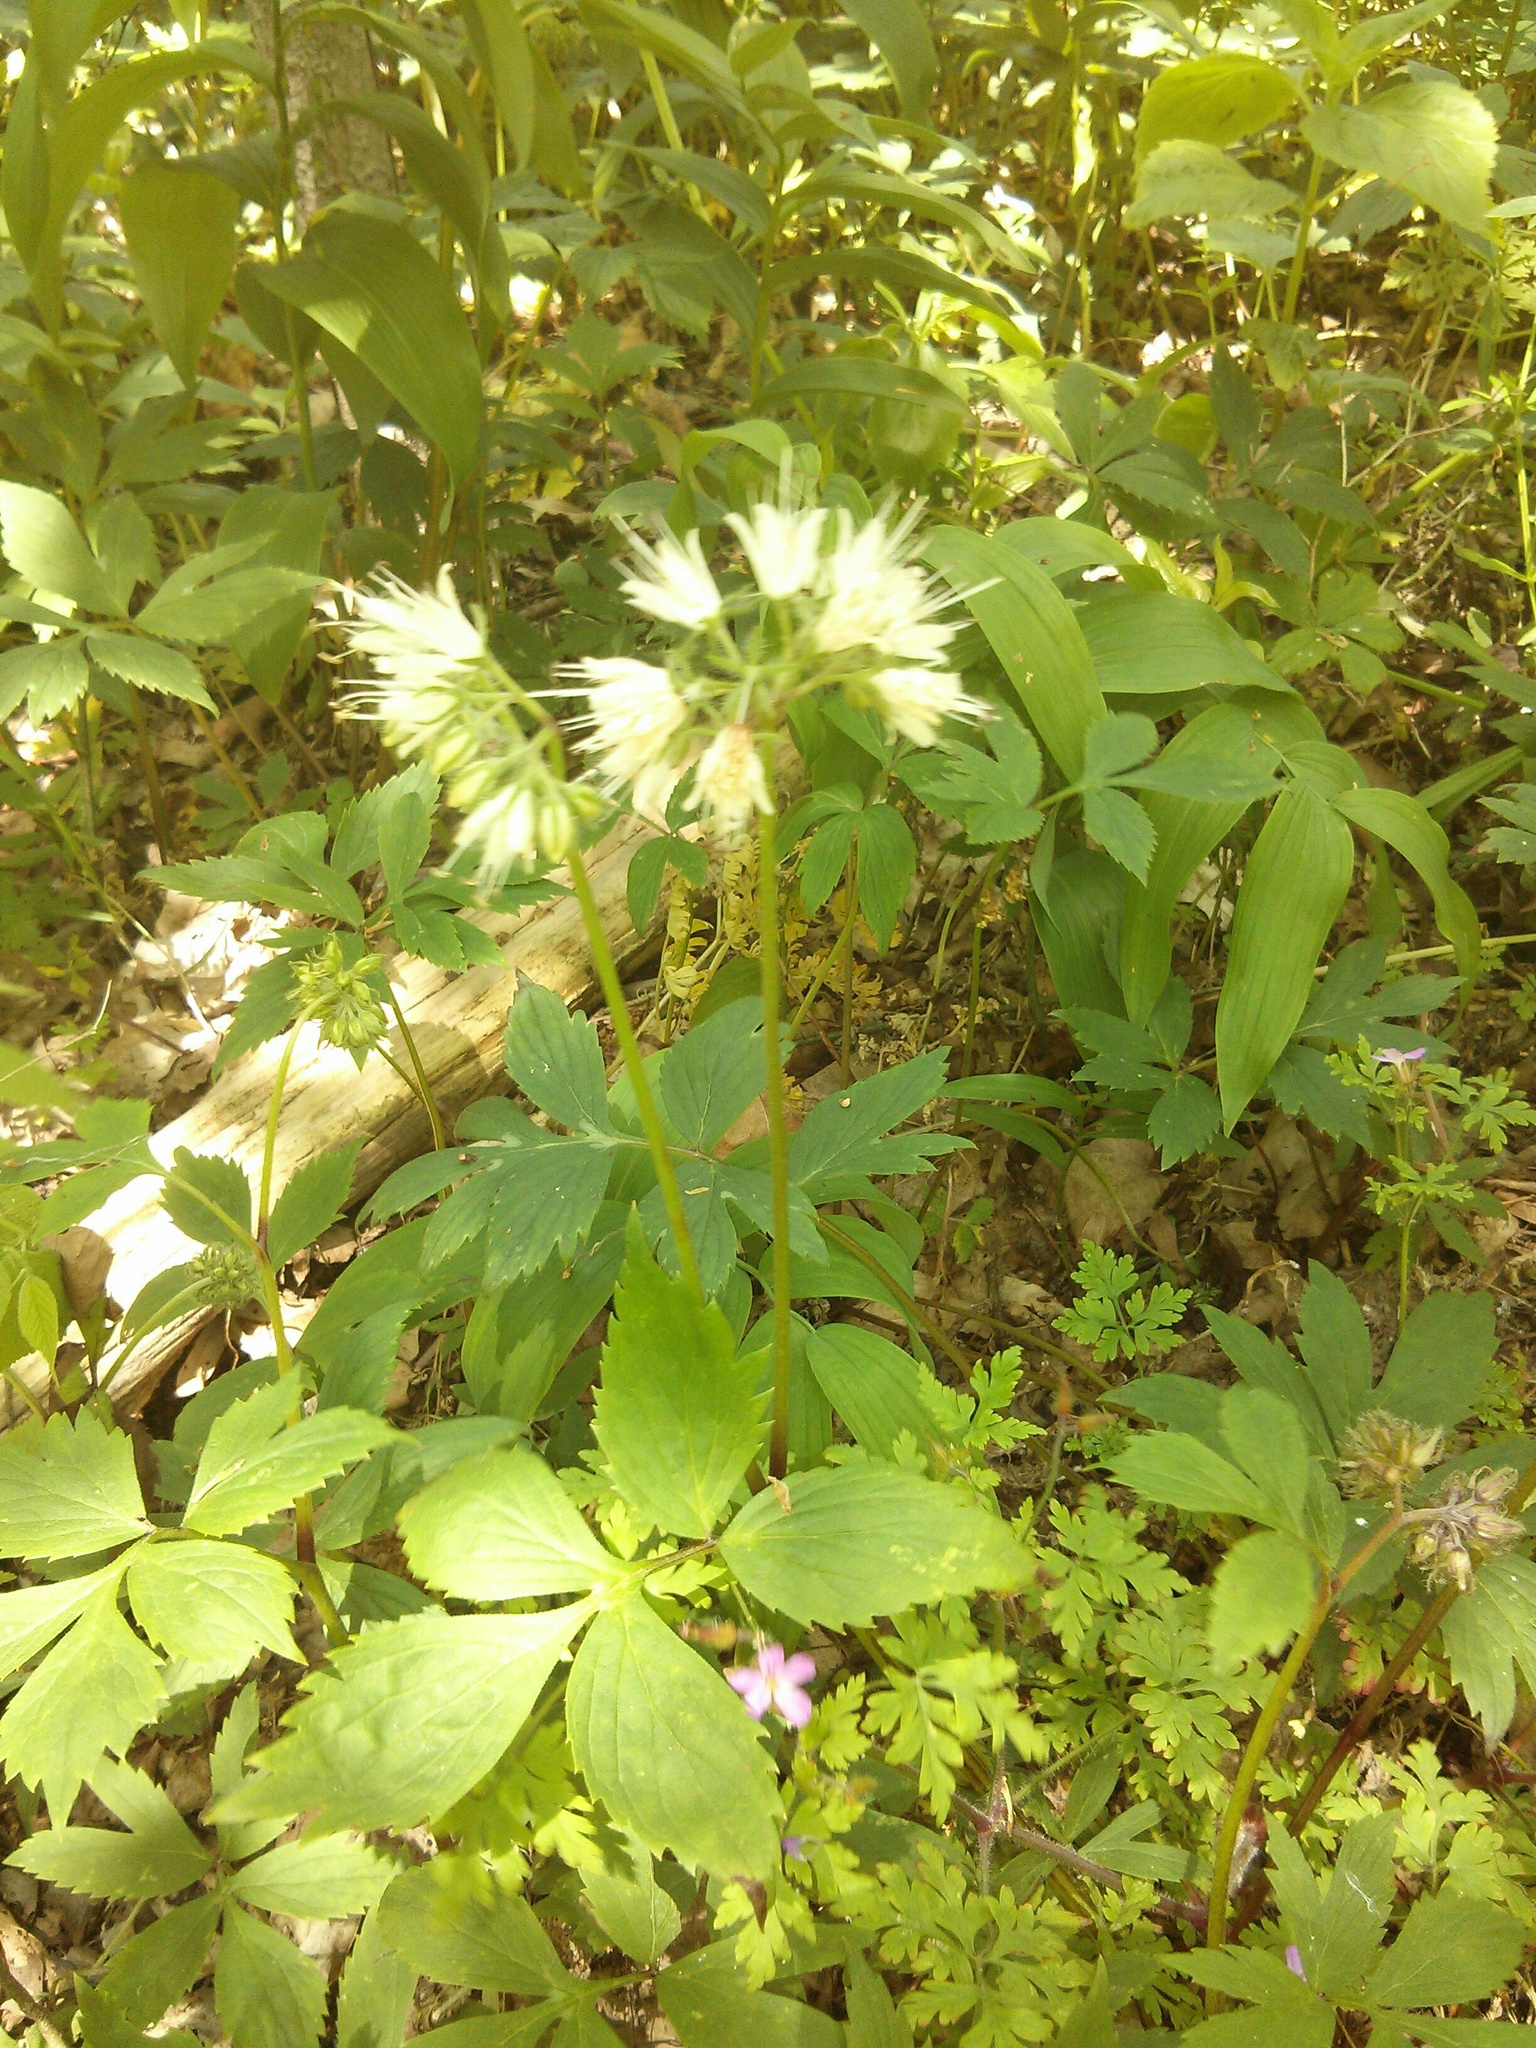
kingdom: Plantae
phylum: Tracheophyta
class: Magnoliopsida
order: Boraginales
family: Hydrophyllaceae
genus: Hydrophyllum
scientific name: Hydrophyllum virginianum
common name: Virginia waterleaf
